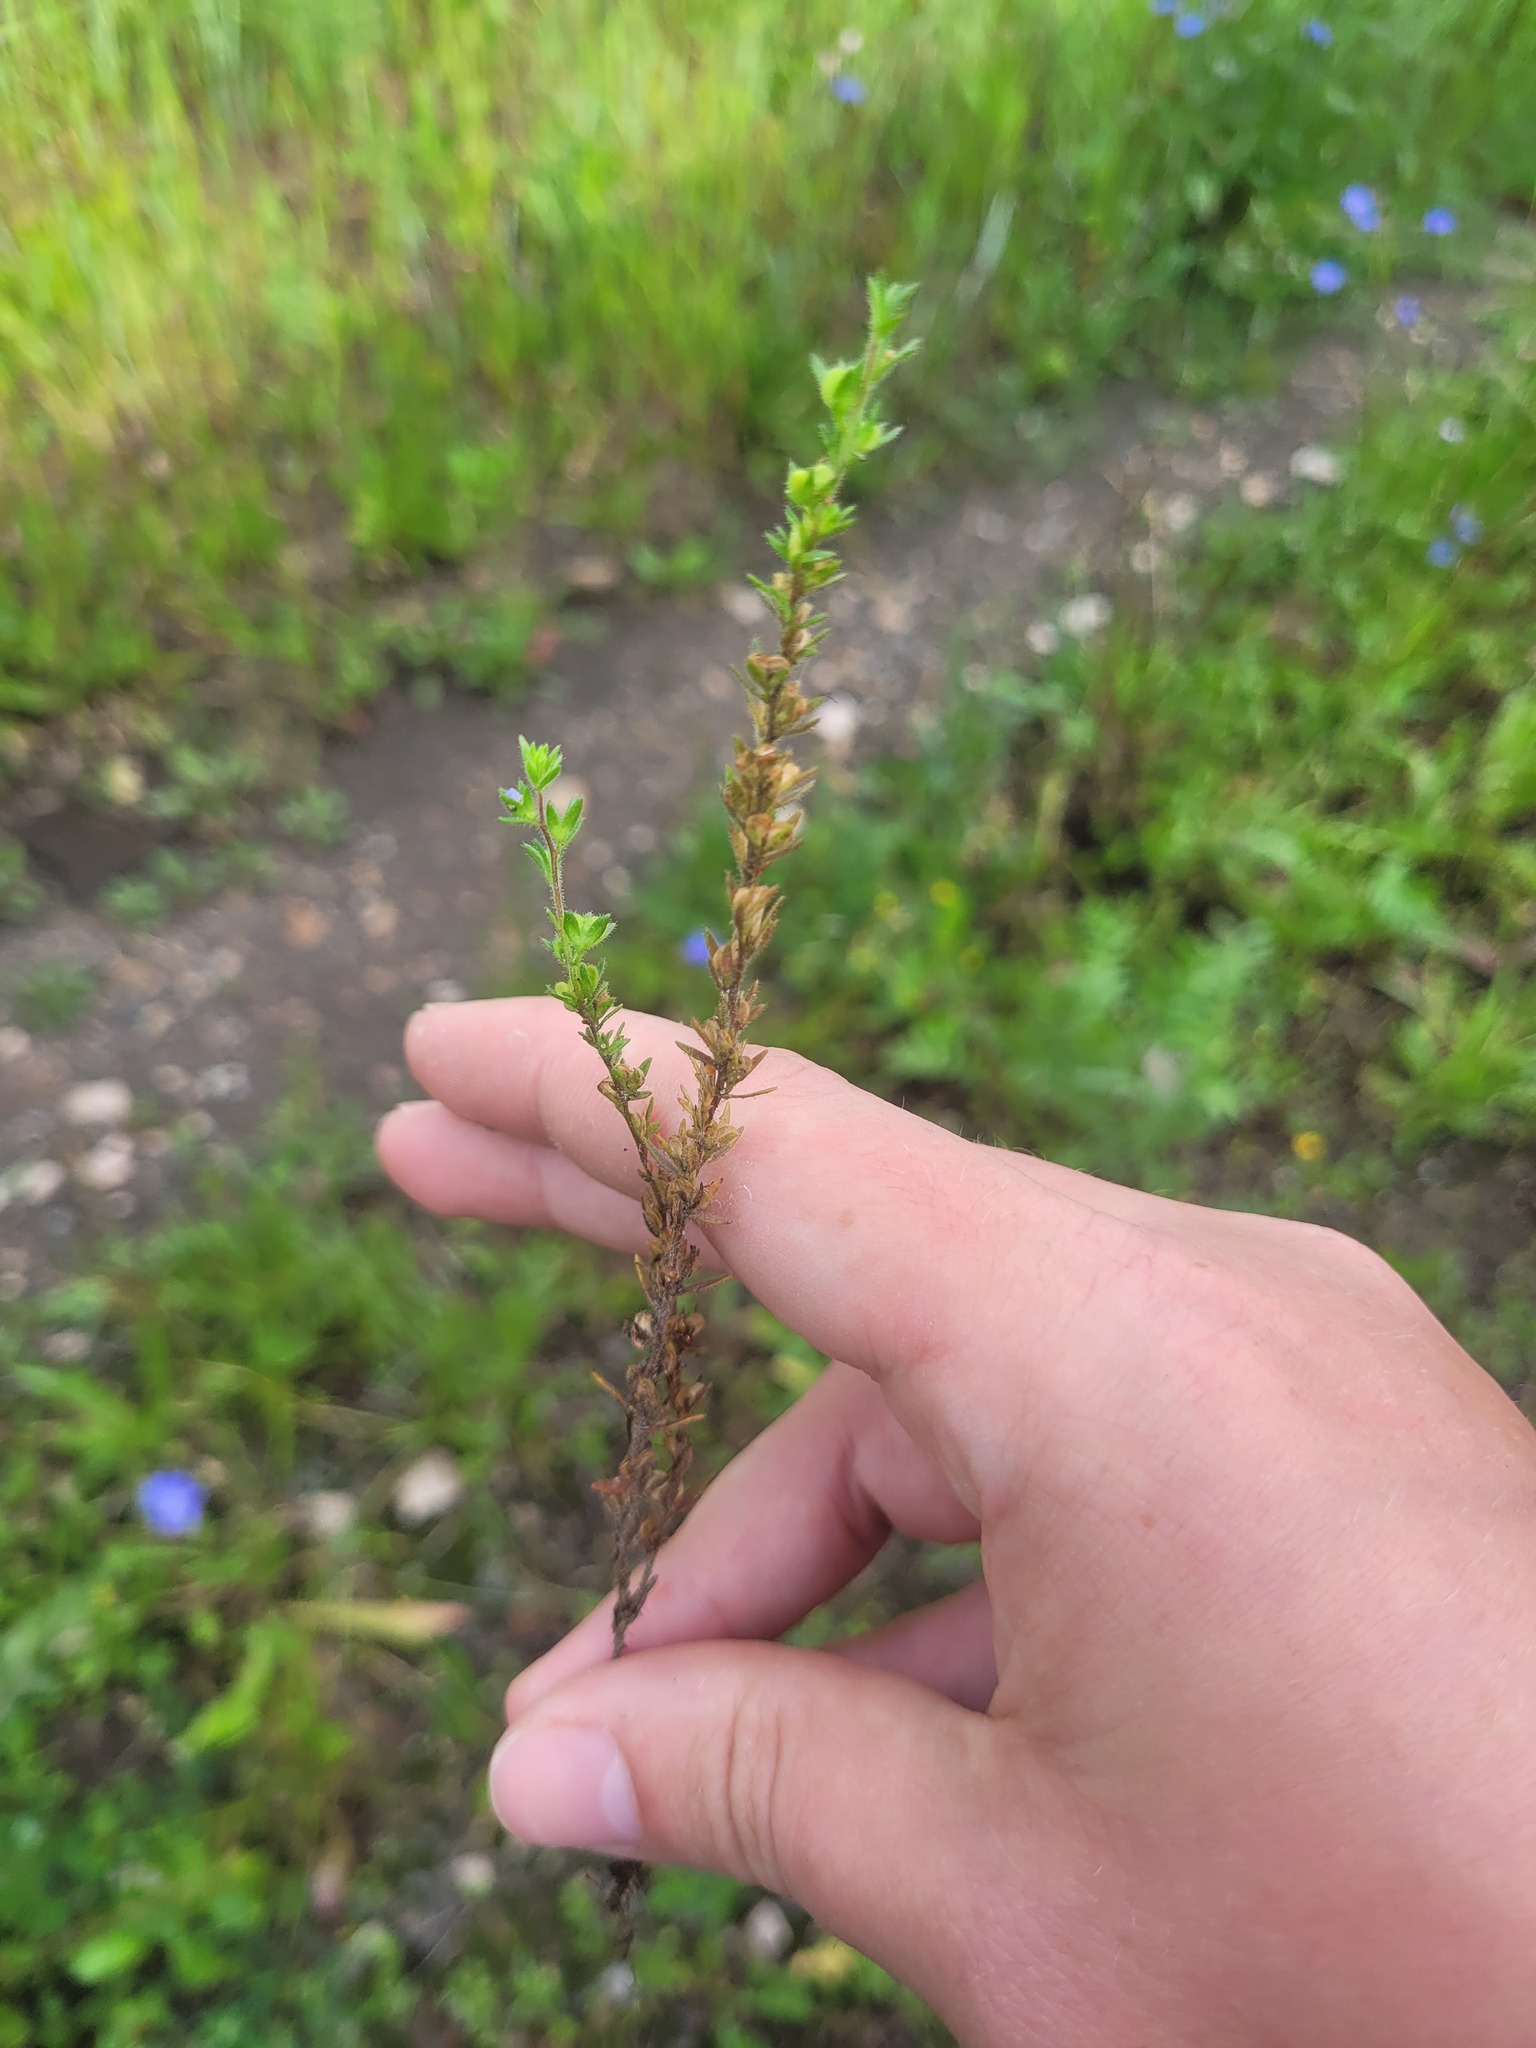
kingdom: Plantae
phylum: Tracheophyta
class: Magnoliopsida
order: Lamiales
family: Plantaginaceae
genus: Veronica
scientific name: Veronica arvensis
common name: Corn speedwell
